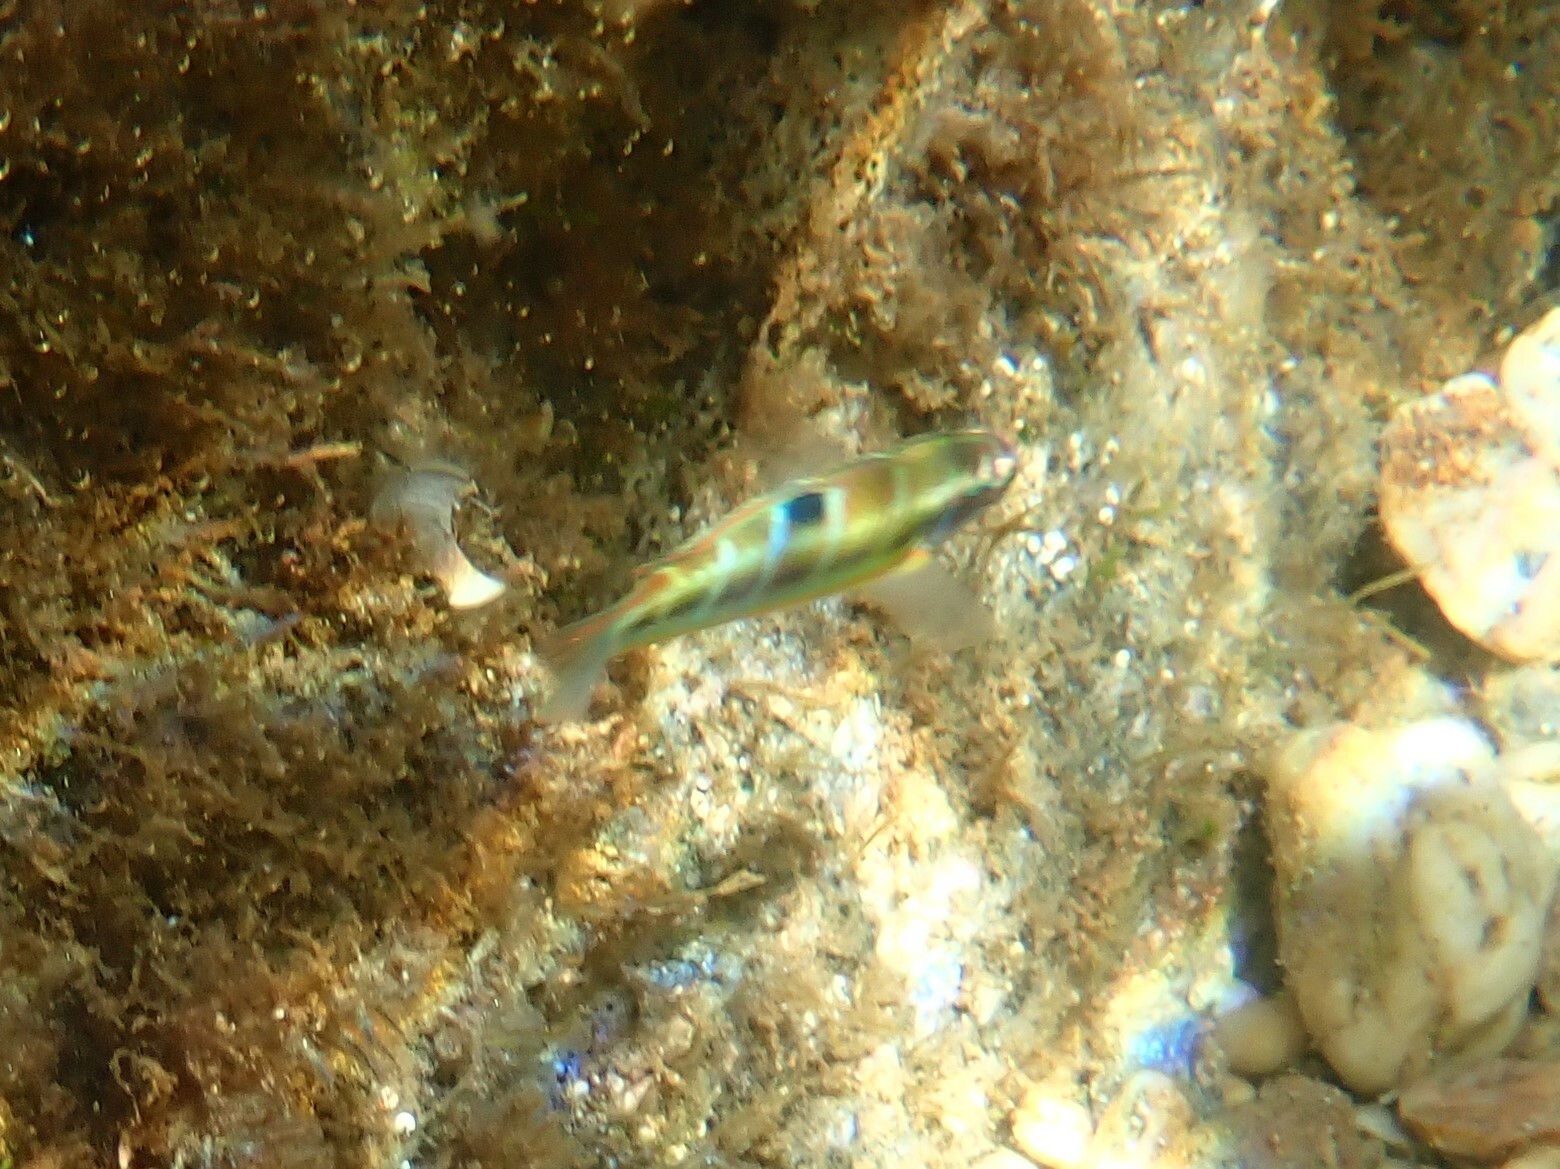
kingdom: Animalia
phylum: Chordata
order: Perciformes
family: Labridae
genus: Thalassoma
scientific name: Thalassoma pavo
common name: Ornate wrasse
